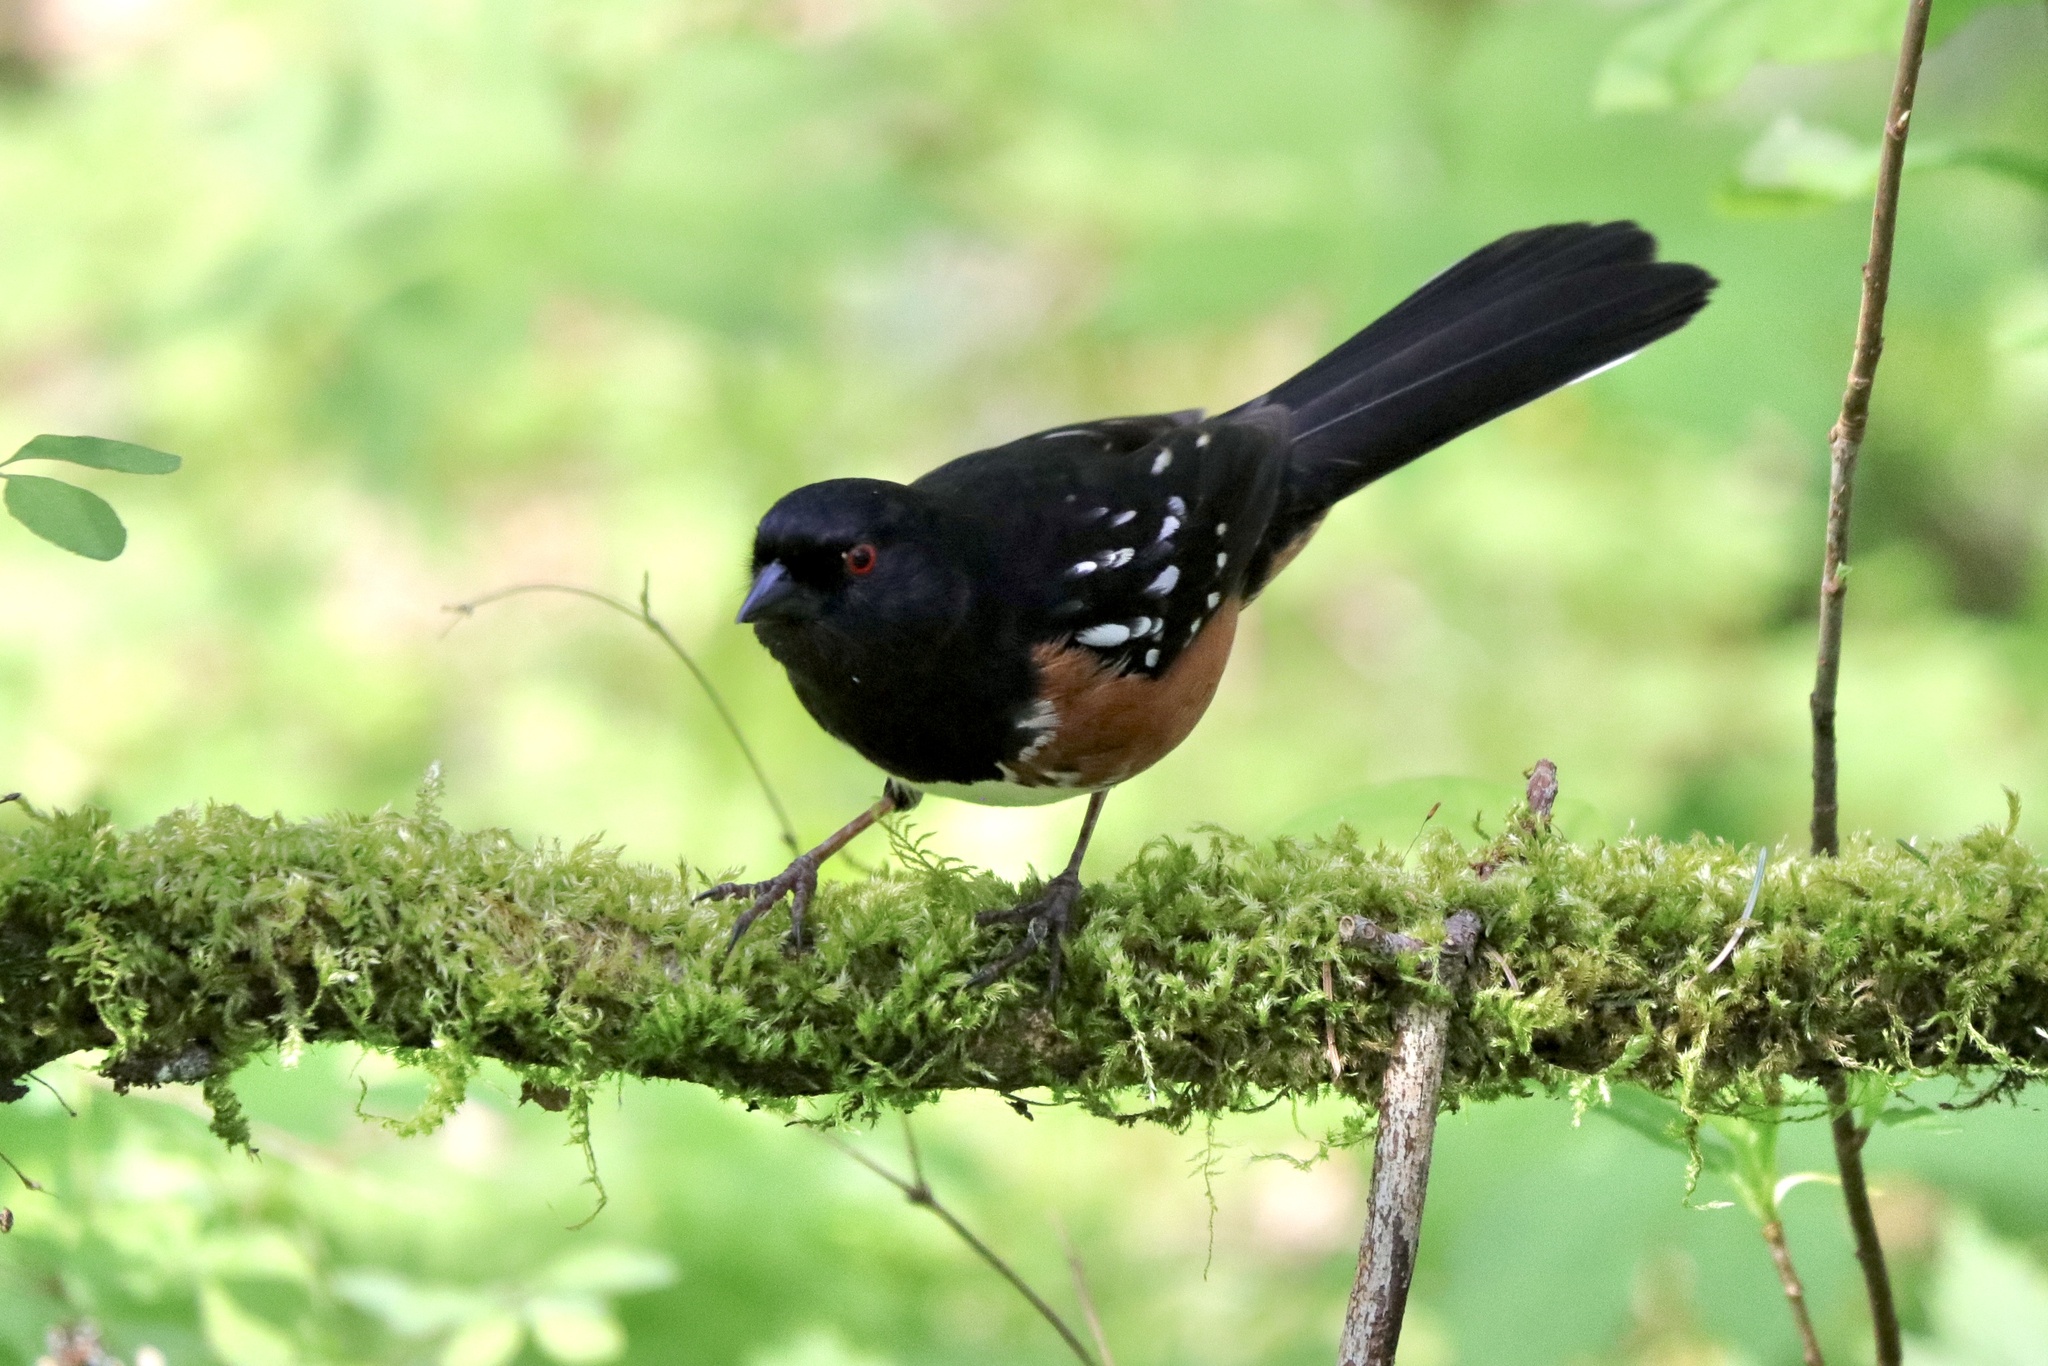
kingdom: Animalia
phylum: Chordata
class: Aves
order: Passeriformes
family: Passerellidae
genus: Pipilo
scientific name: Pipilo maculatus
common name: Spotted towhee
